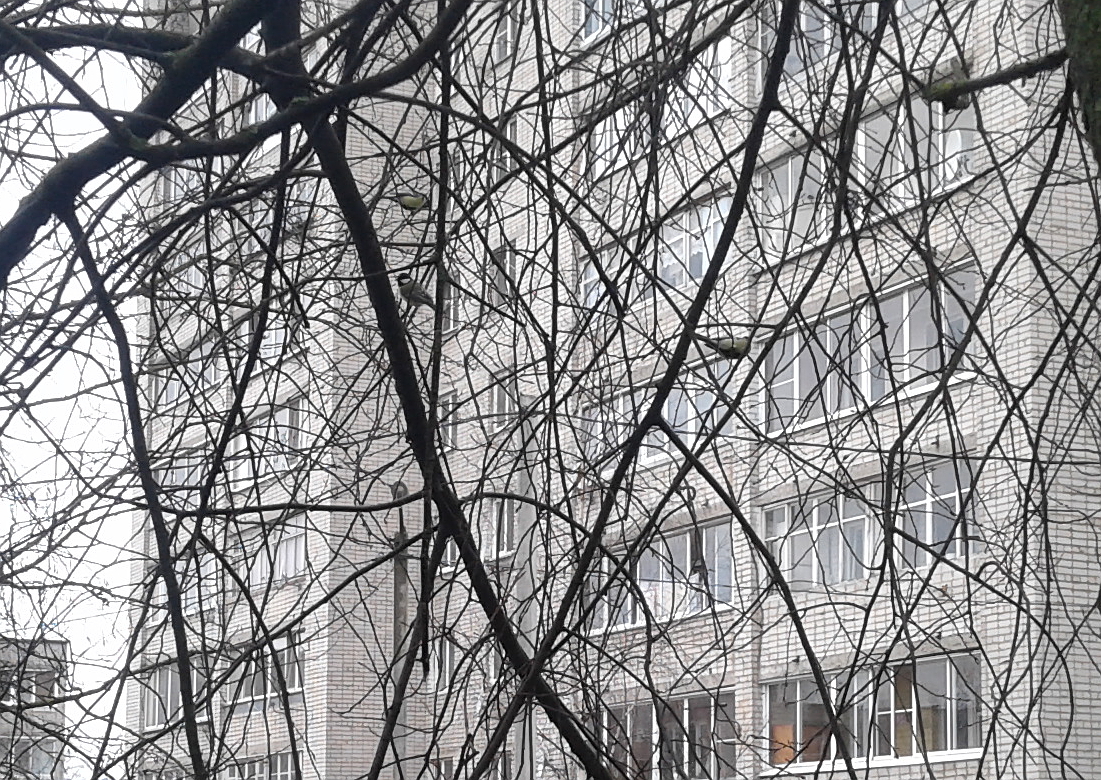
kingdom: Animalia
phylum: Chordata
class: Aves
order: Passeriformes
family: Paridae
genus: Parus
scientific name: Parus major
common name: Great tit
